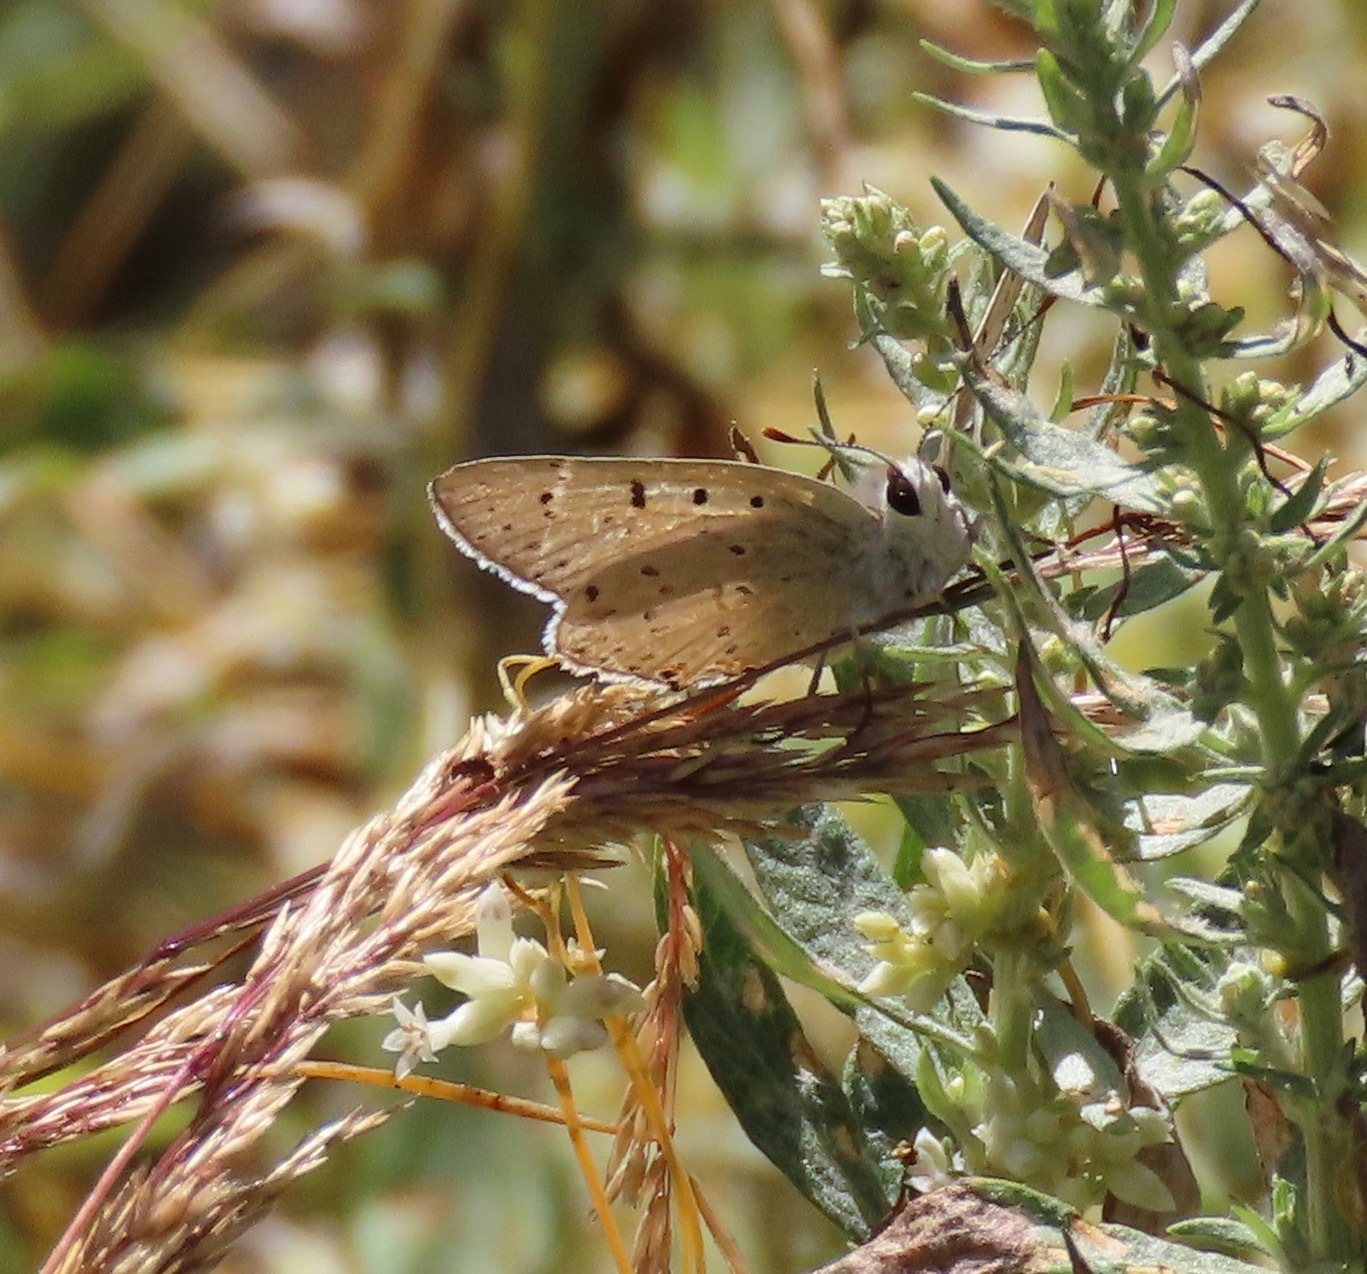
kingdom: Animalia
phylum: Arthropoda
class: Insecta
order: Lepidoptera
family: Lycaenidae
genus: Tharsalea
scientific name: Tharsalea xanthoides
